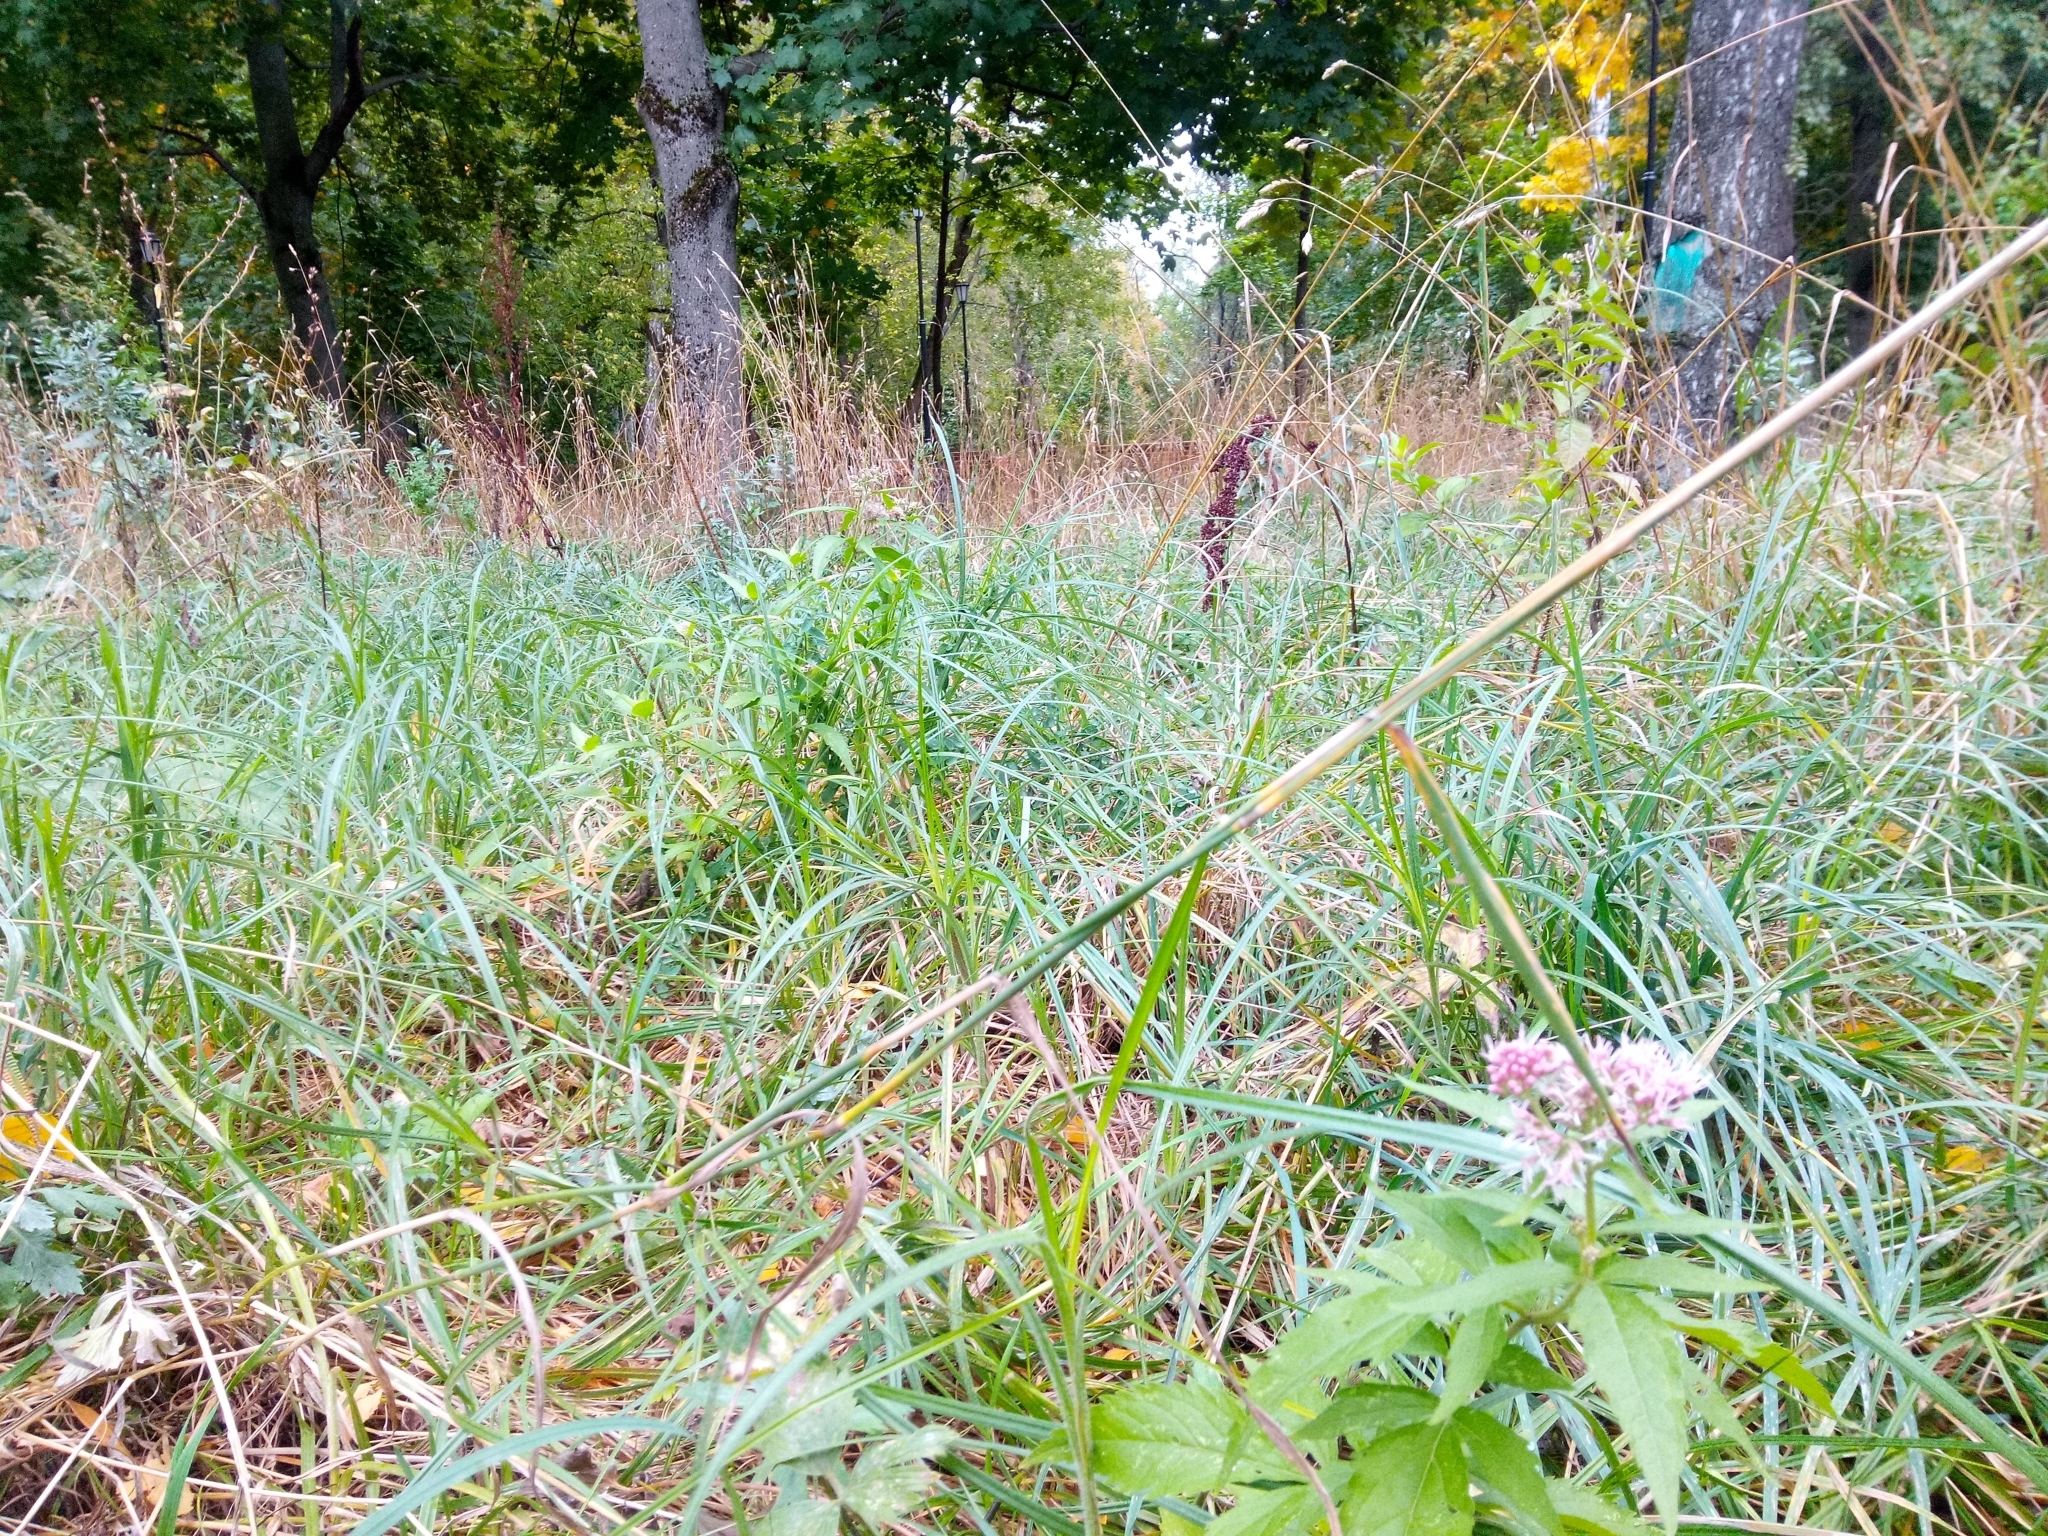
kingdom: Plantae
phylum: Tracheophyta
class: Magnoliopsida
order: Asterales
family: Asteraceae
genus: Eupatorium
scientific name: Eupatorium cannabinum
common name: Hemp-agrimony
